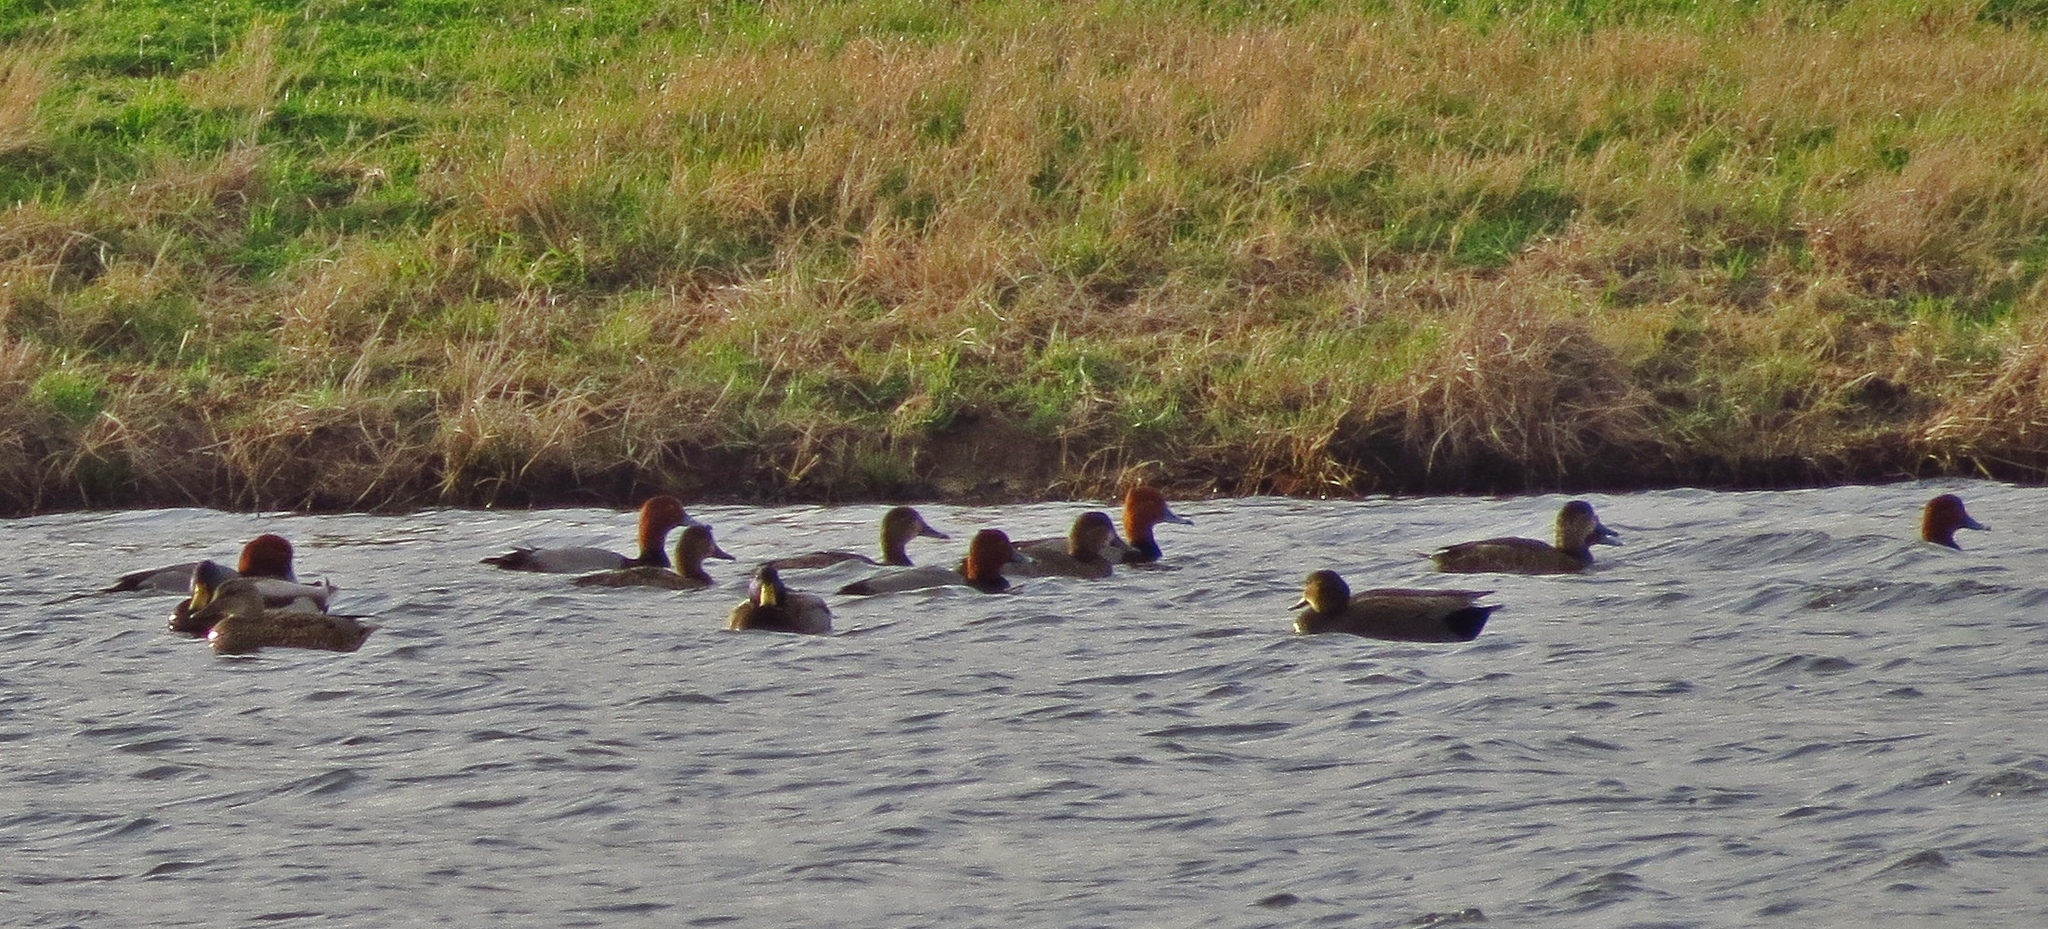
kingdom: Animalia
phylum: Chordata
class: Aves
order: Anseriformes
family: Anatidae
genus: Aythya
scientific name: Aythya americana
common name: Redhead
